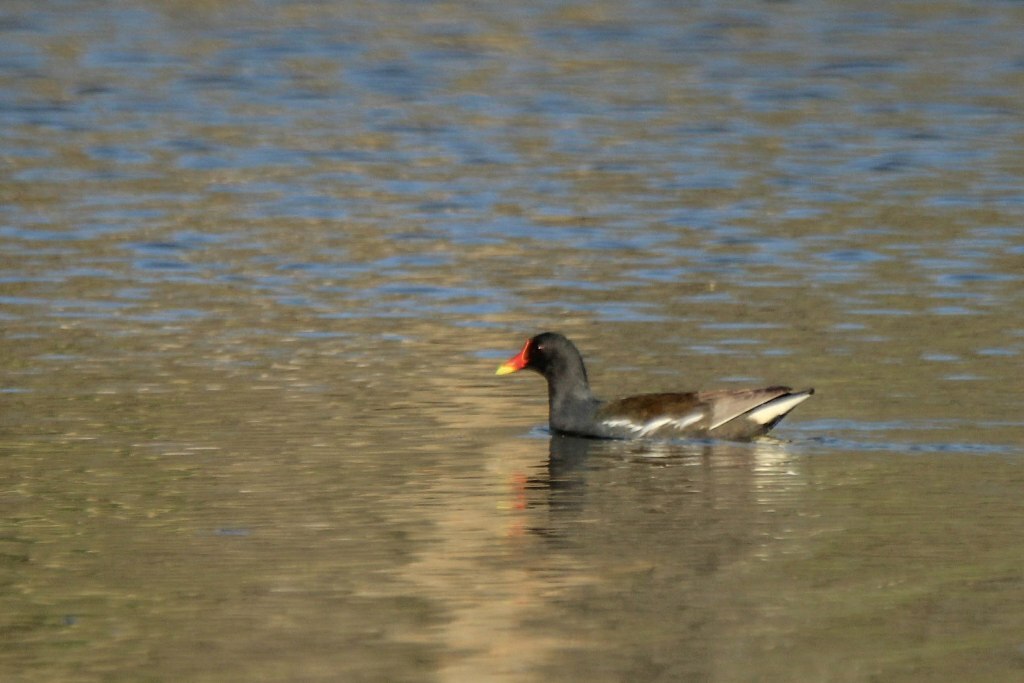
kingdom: Animalia
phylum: Chordata
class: Aves
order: Gruiformes
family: Rallidae
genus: Gallinula
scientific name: Gallinula chloropus
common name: Common moorhen
